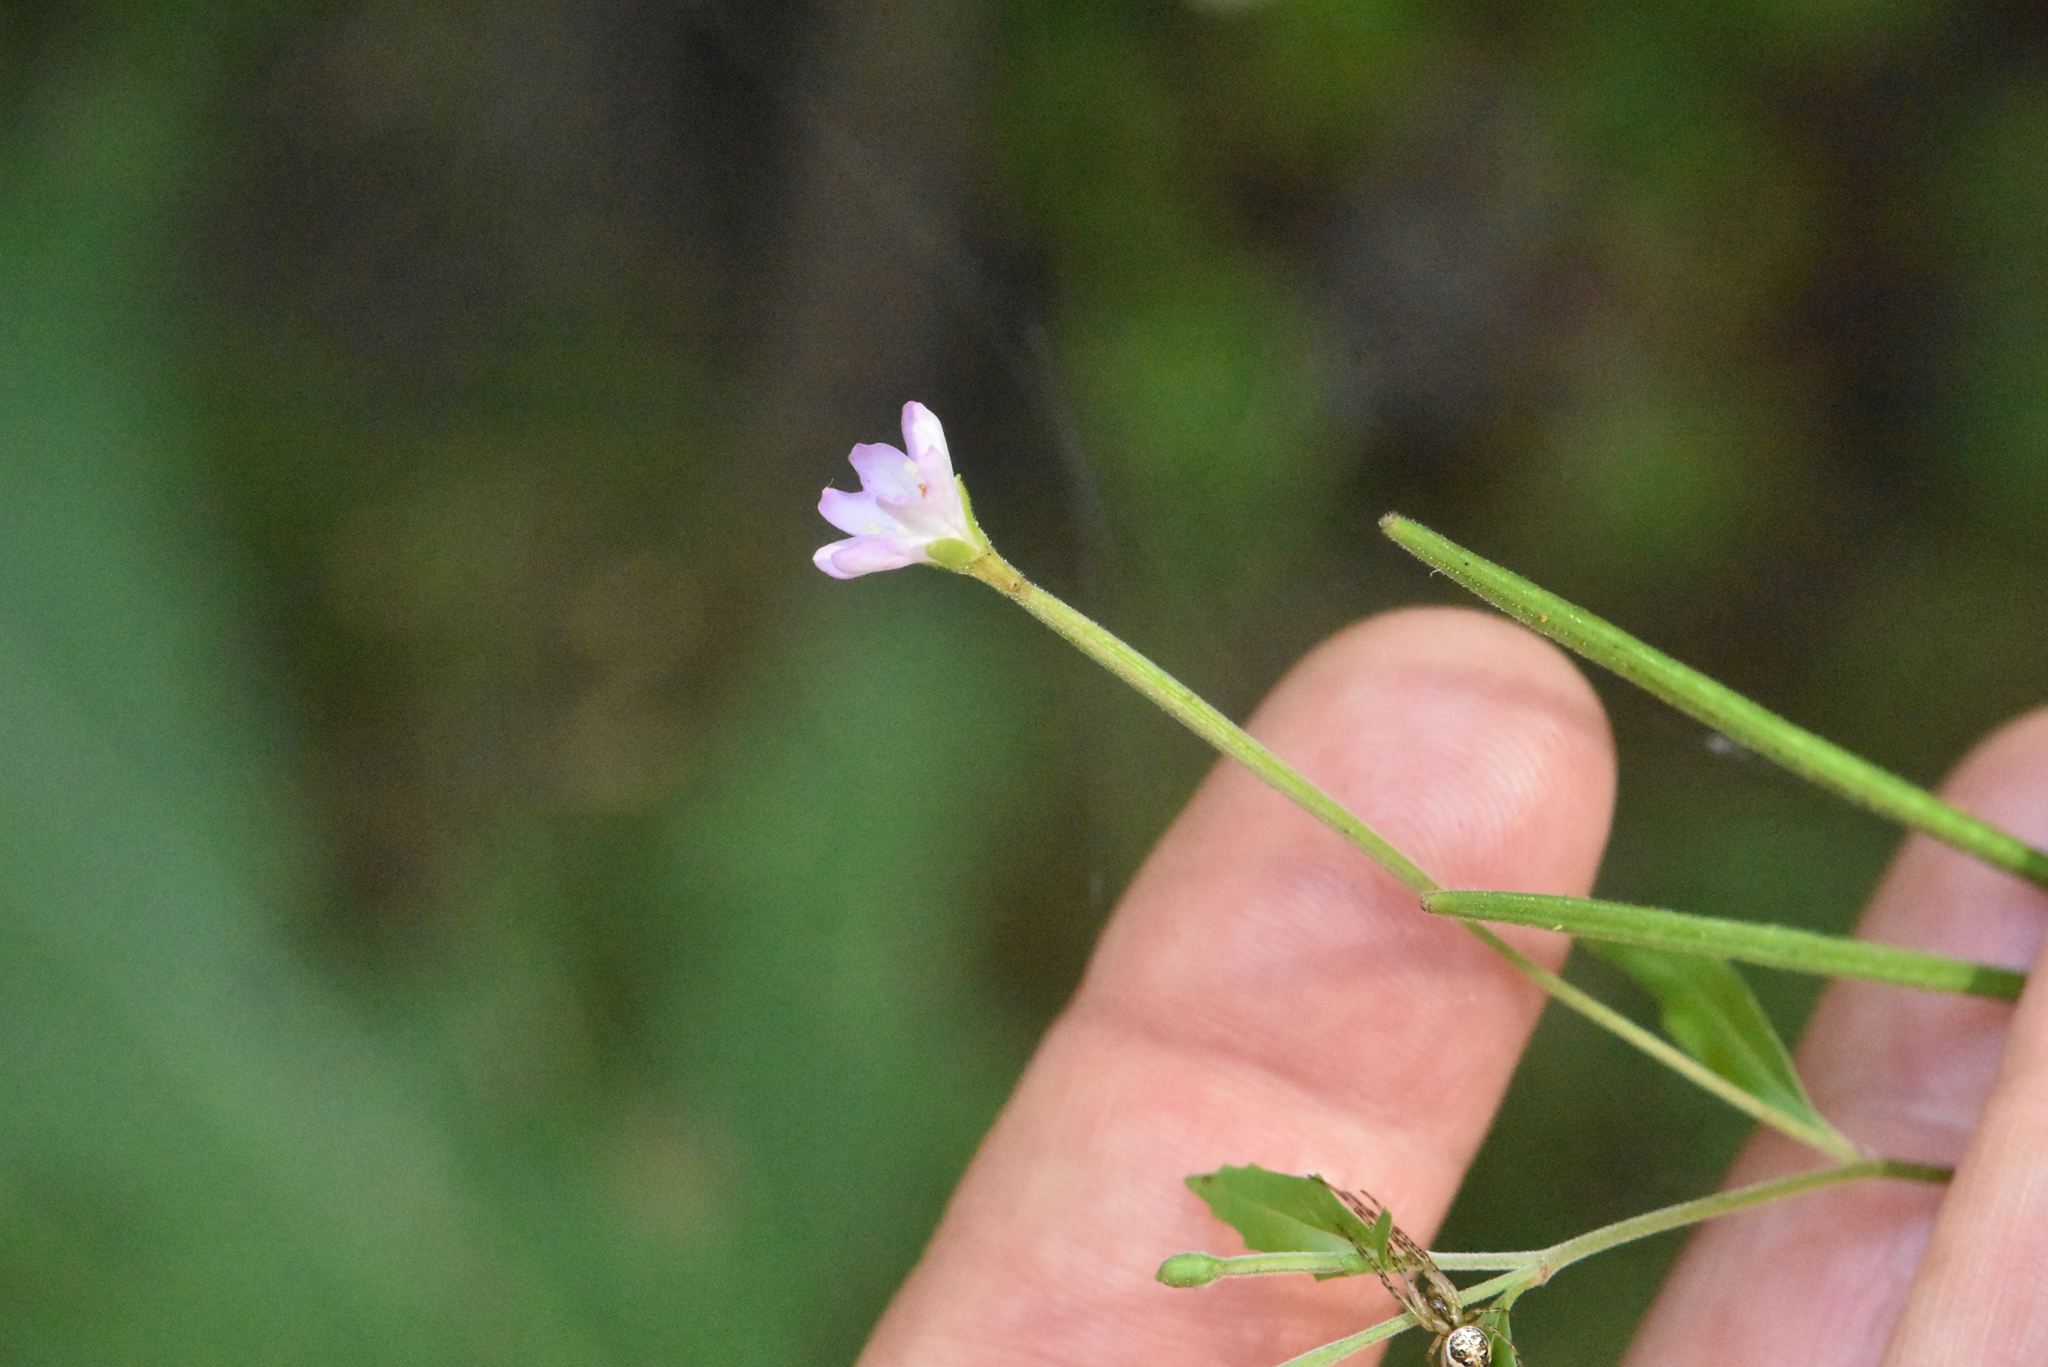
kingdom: Plantae
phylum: Tracheophyta
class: Magnoliopsida
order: Myrtales
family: Onagraceae
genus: Epilobium
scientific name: Epilobium montanum
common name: Broad-leaved willowherb
